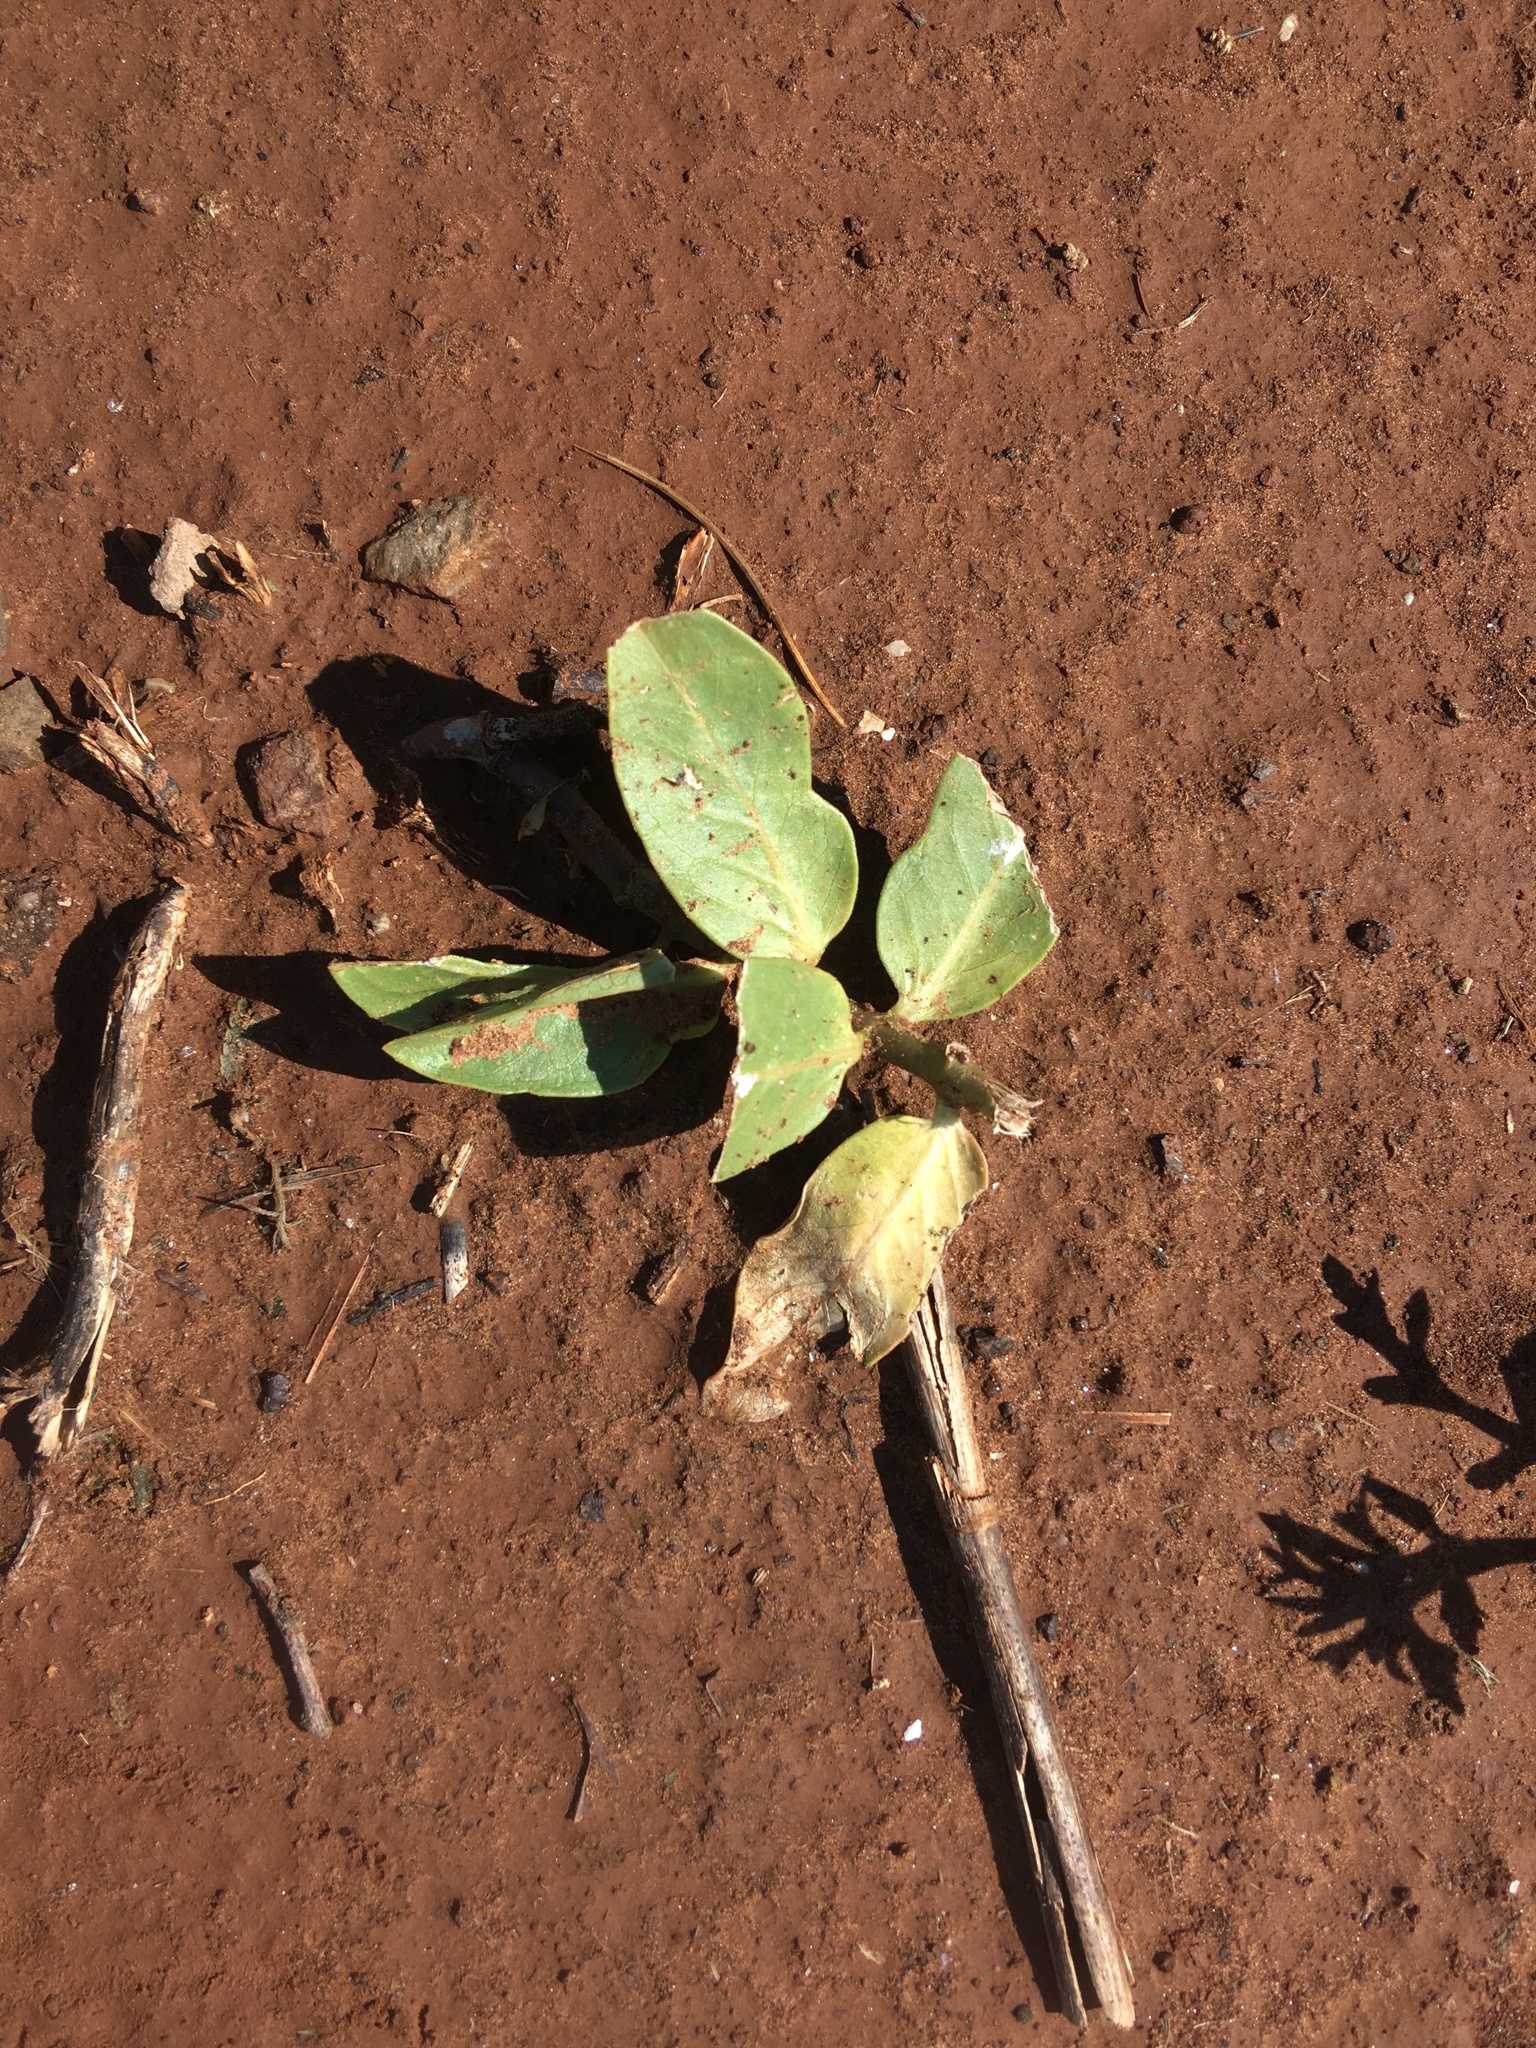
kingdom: Plantae
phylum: Tracheophyta
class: Magnoliopsida
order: Gentianales
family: Apocynaceae
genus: Asclepias
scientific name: Asclepias viridis
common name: Antelope-horns
